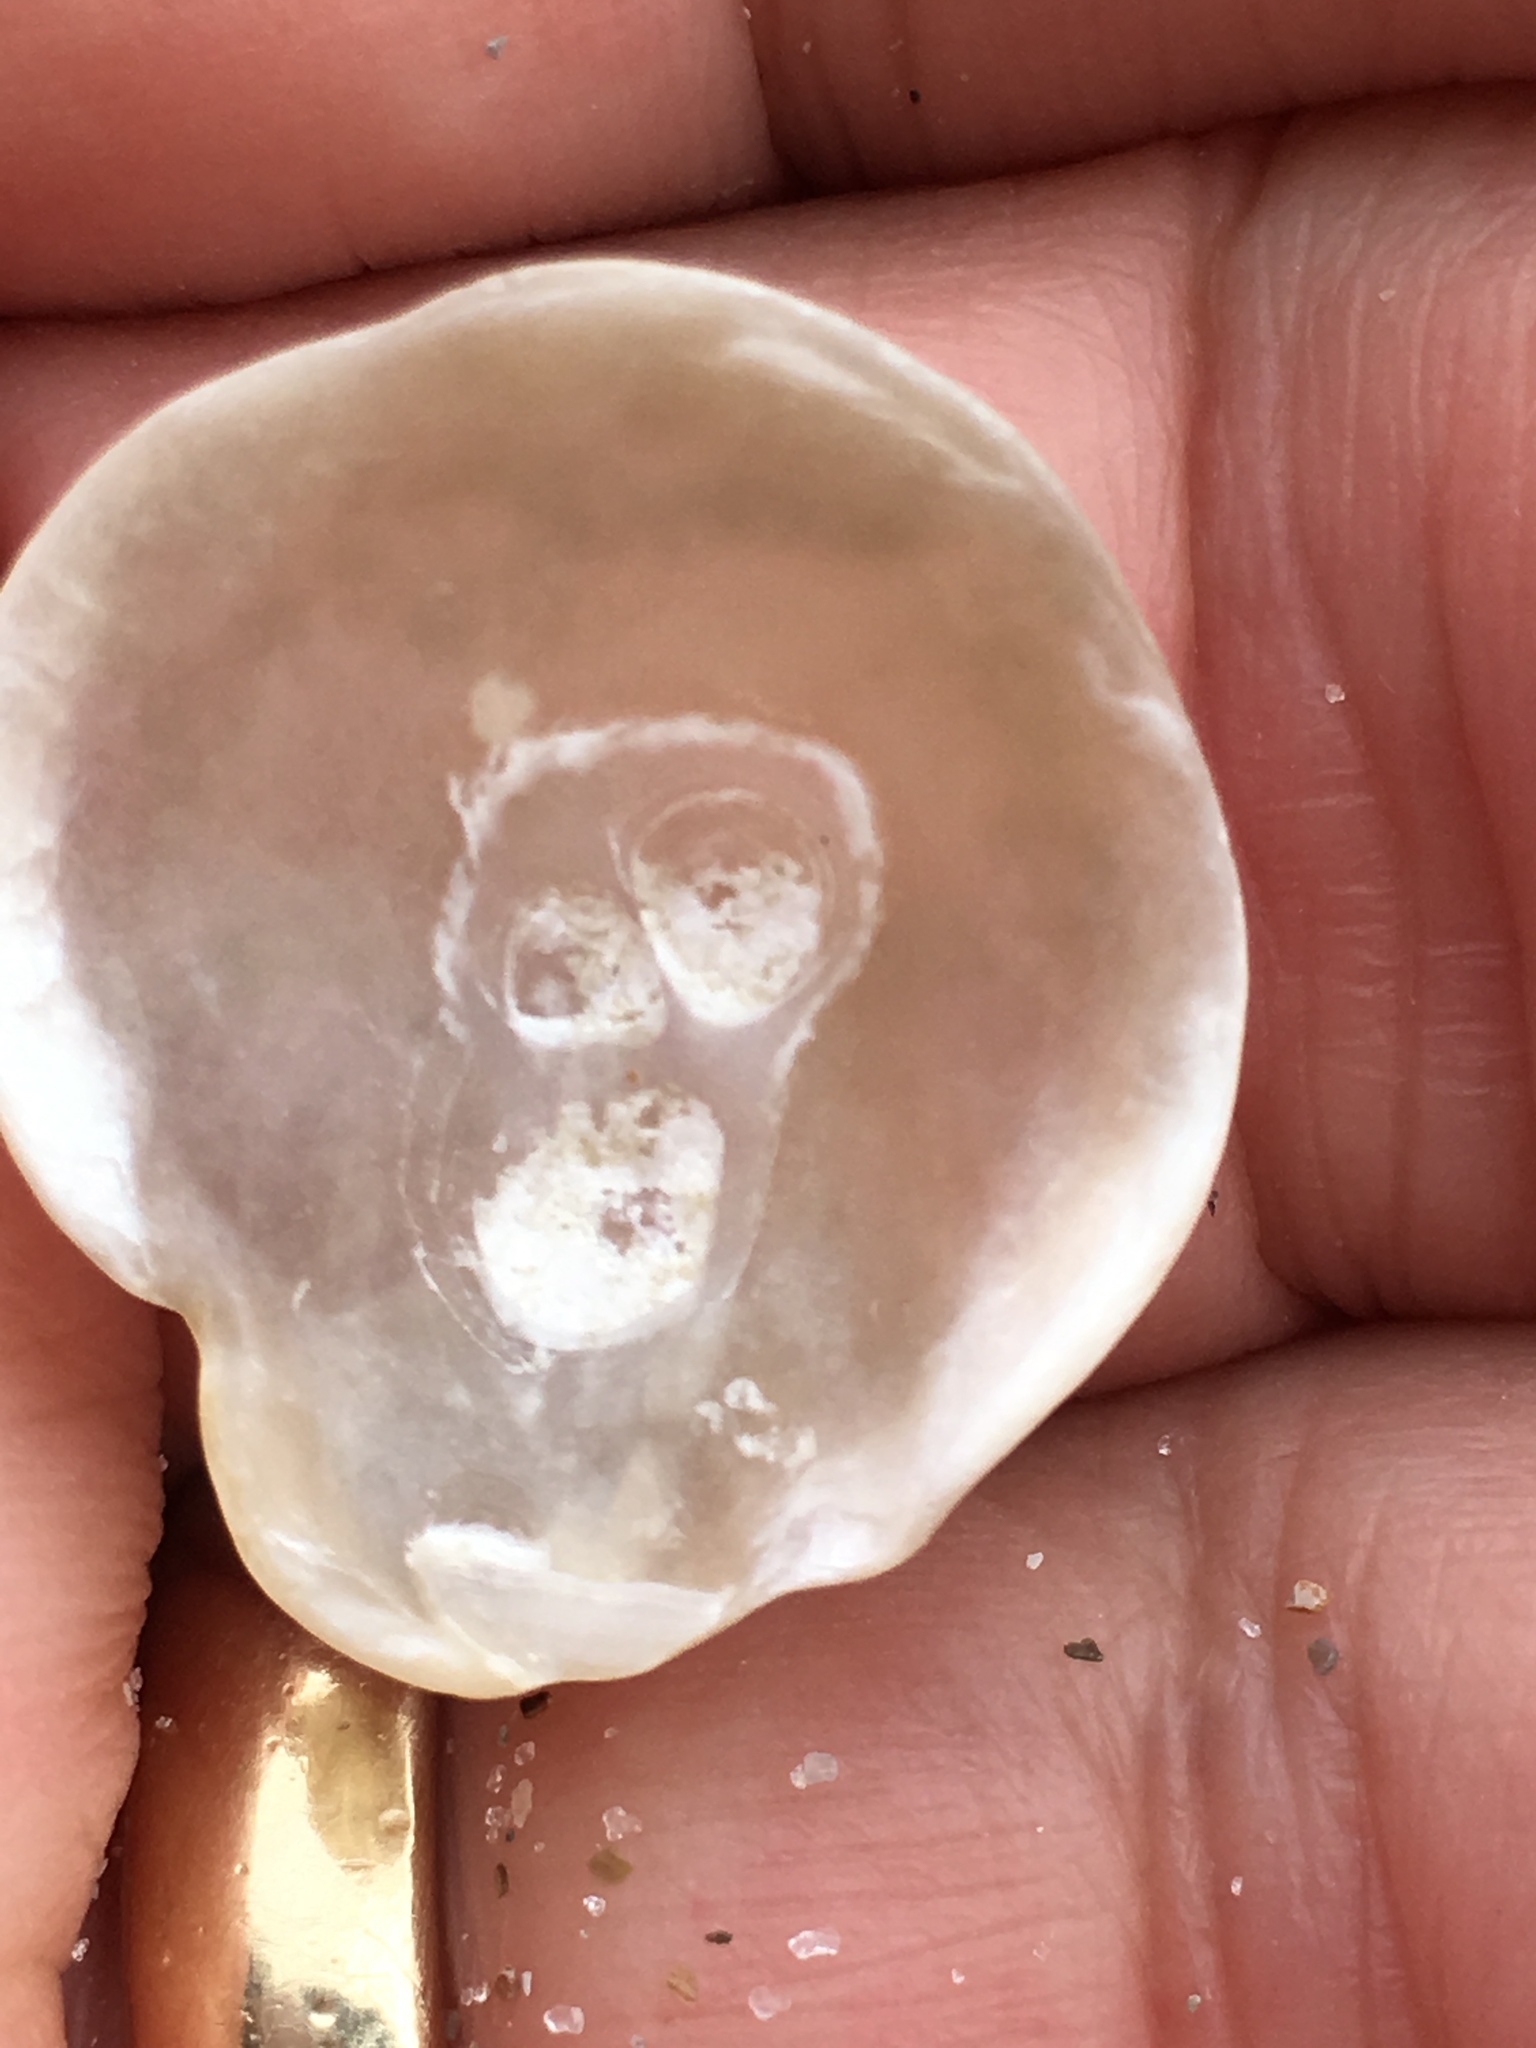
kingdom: Animalia
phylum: Mollusca
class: Bivalvia
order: Pectinida
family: Anomiidae
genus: Anomia
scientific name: Anomia simplex
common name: Common jingle shell
